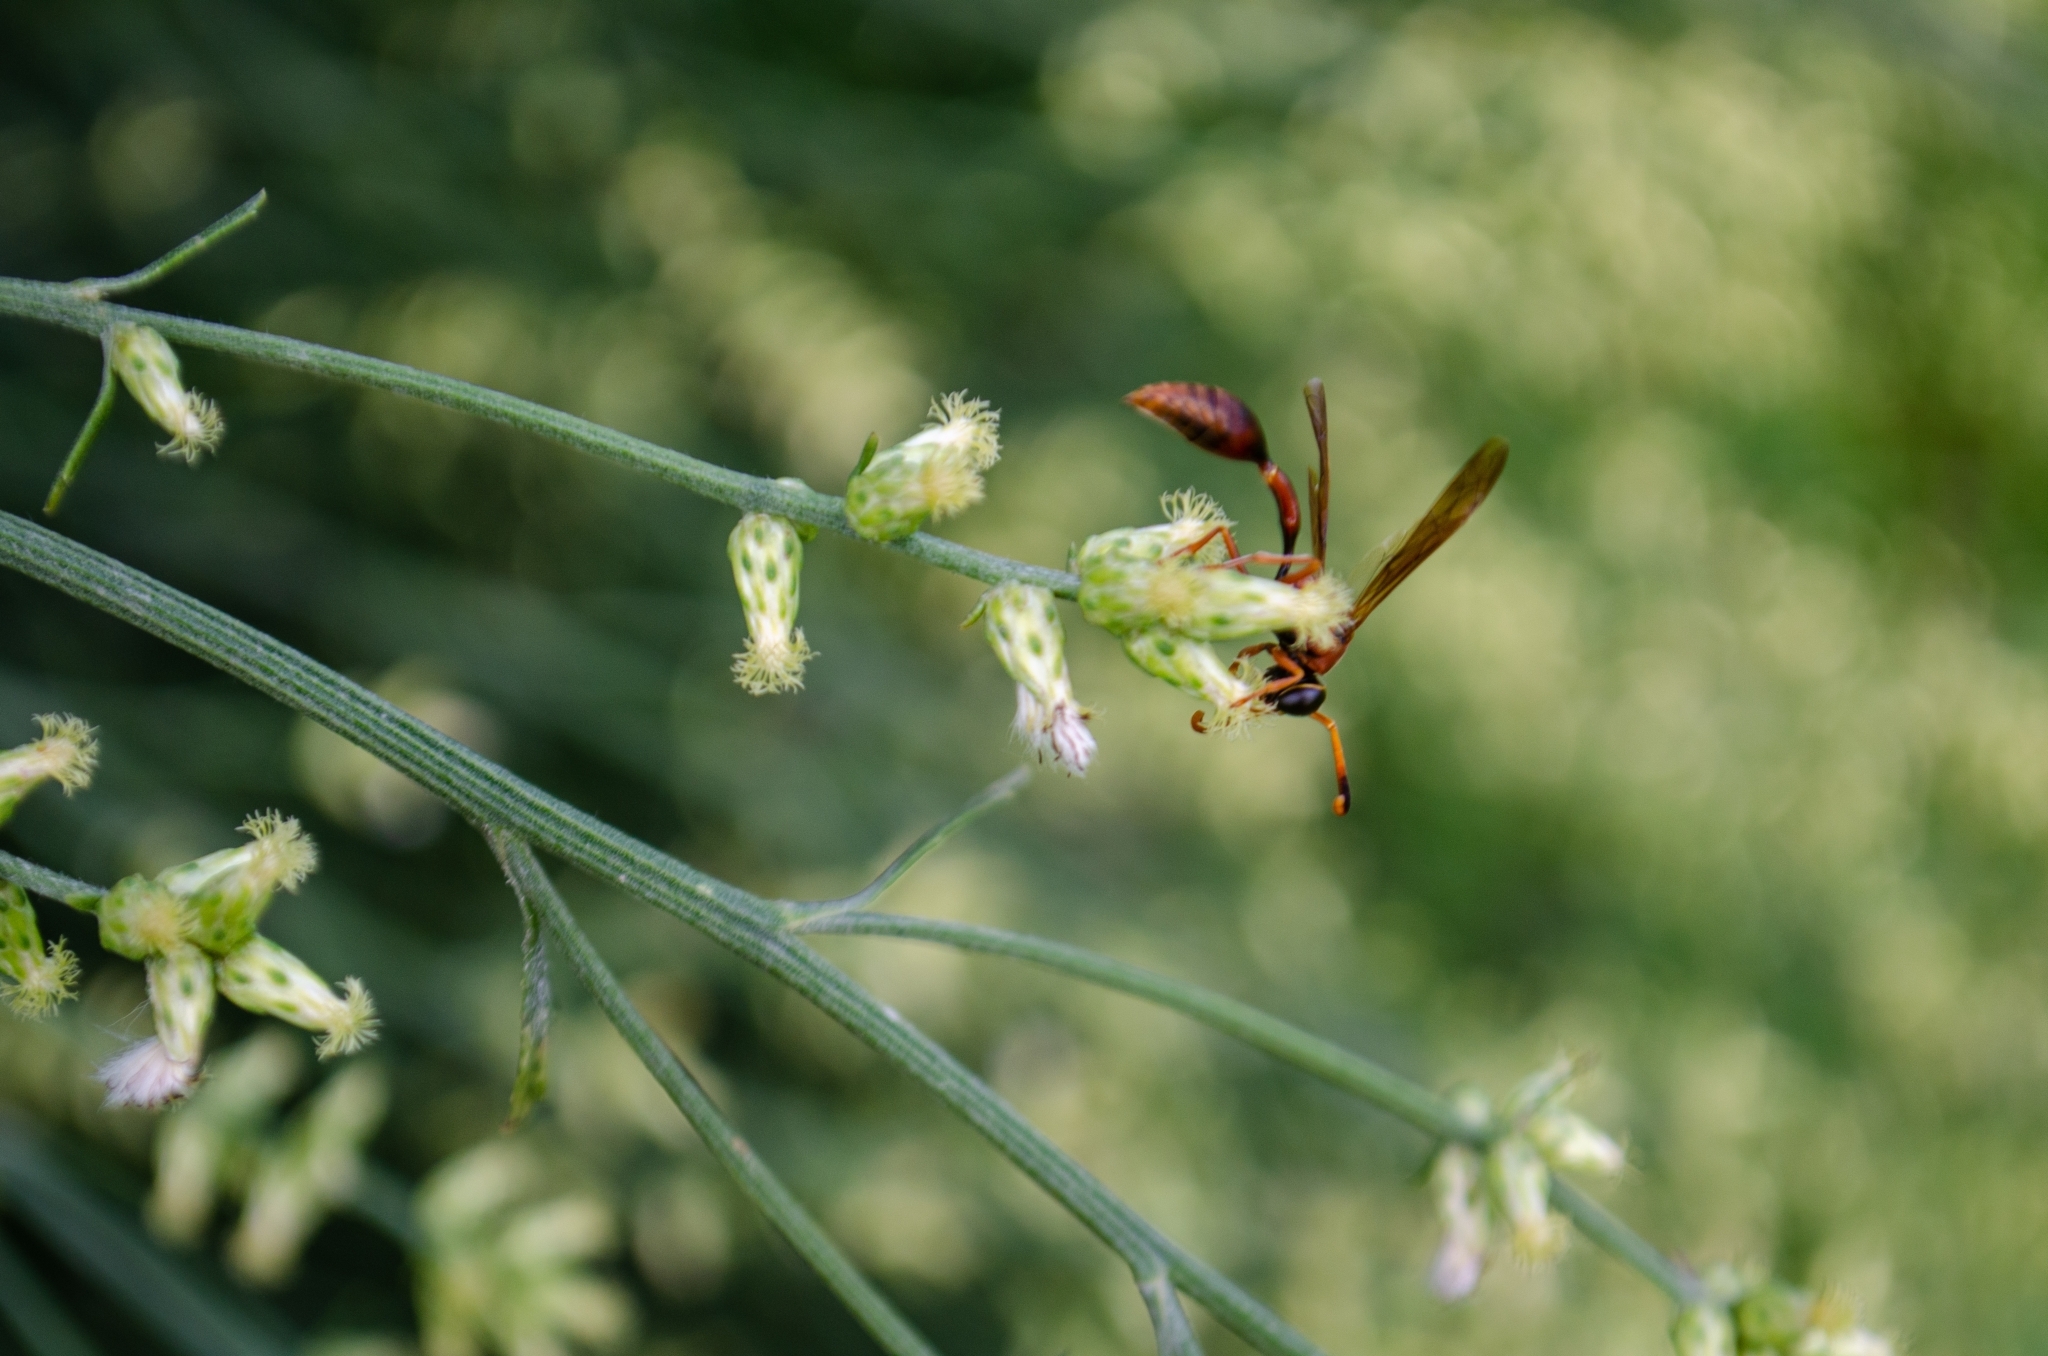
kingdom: Animalia
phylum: Arthropoda
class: Insecta
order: Hymenoptera
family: Eumenidae
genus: Zeta
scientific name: Zeta argillaceum
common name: Potter wasp
